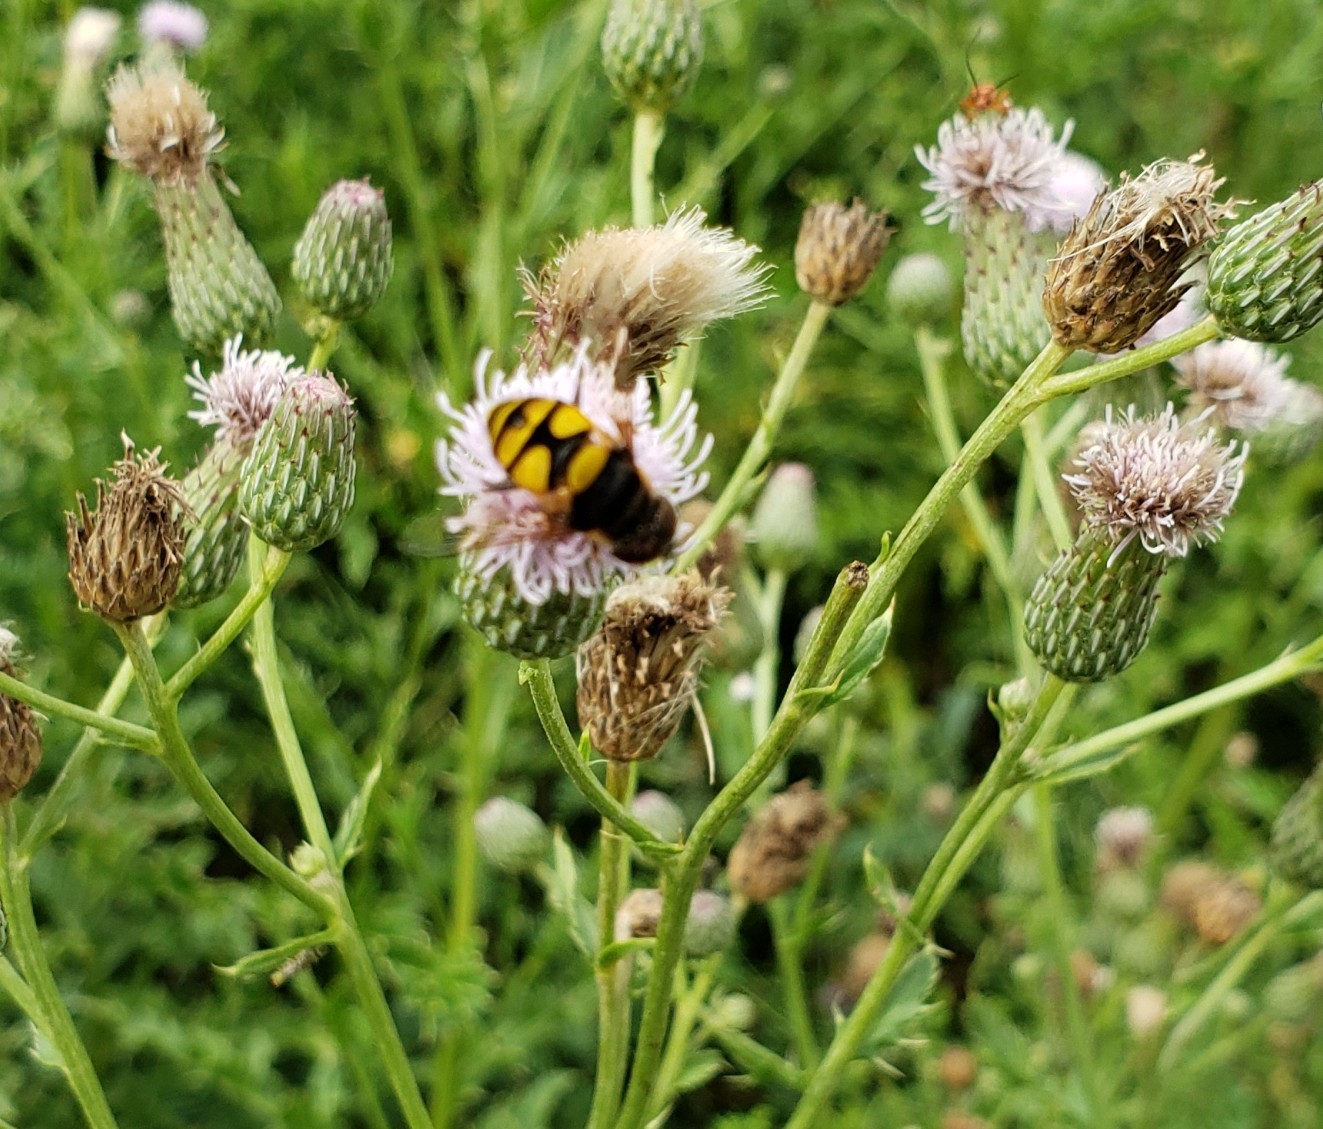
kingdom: Animalia
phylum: Arthropoda
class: Insecta
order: Diptera
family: Syrphidae
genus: Eristalis
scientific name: Eristalis transversa
